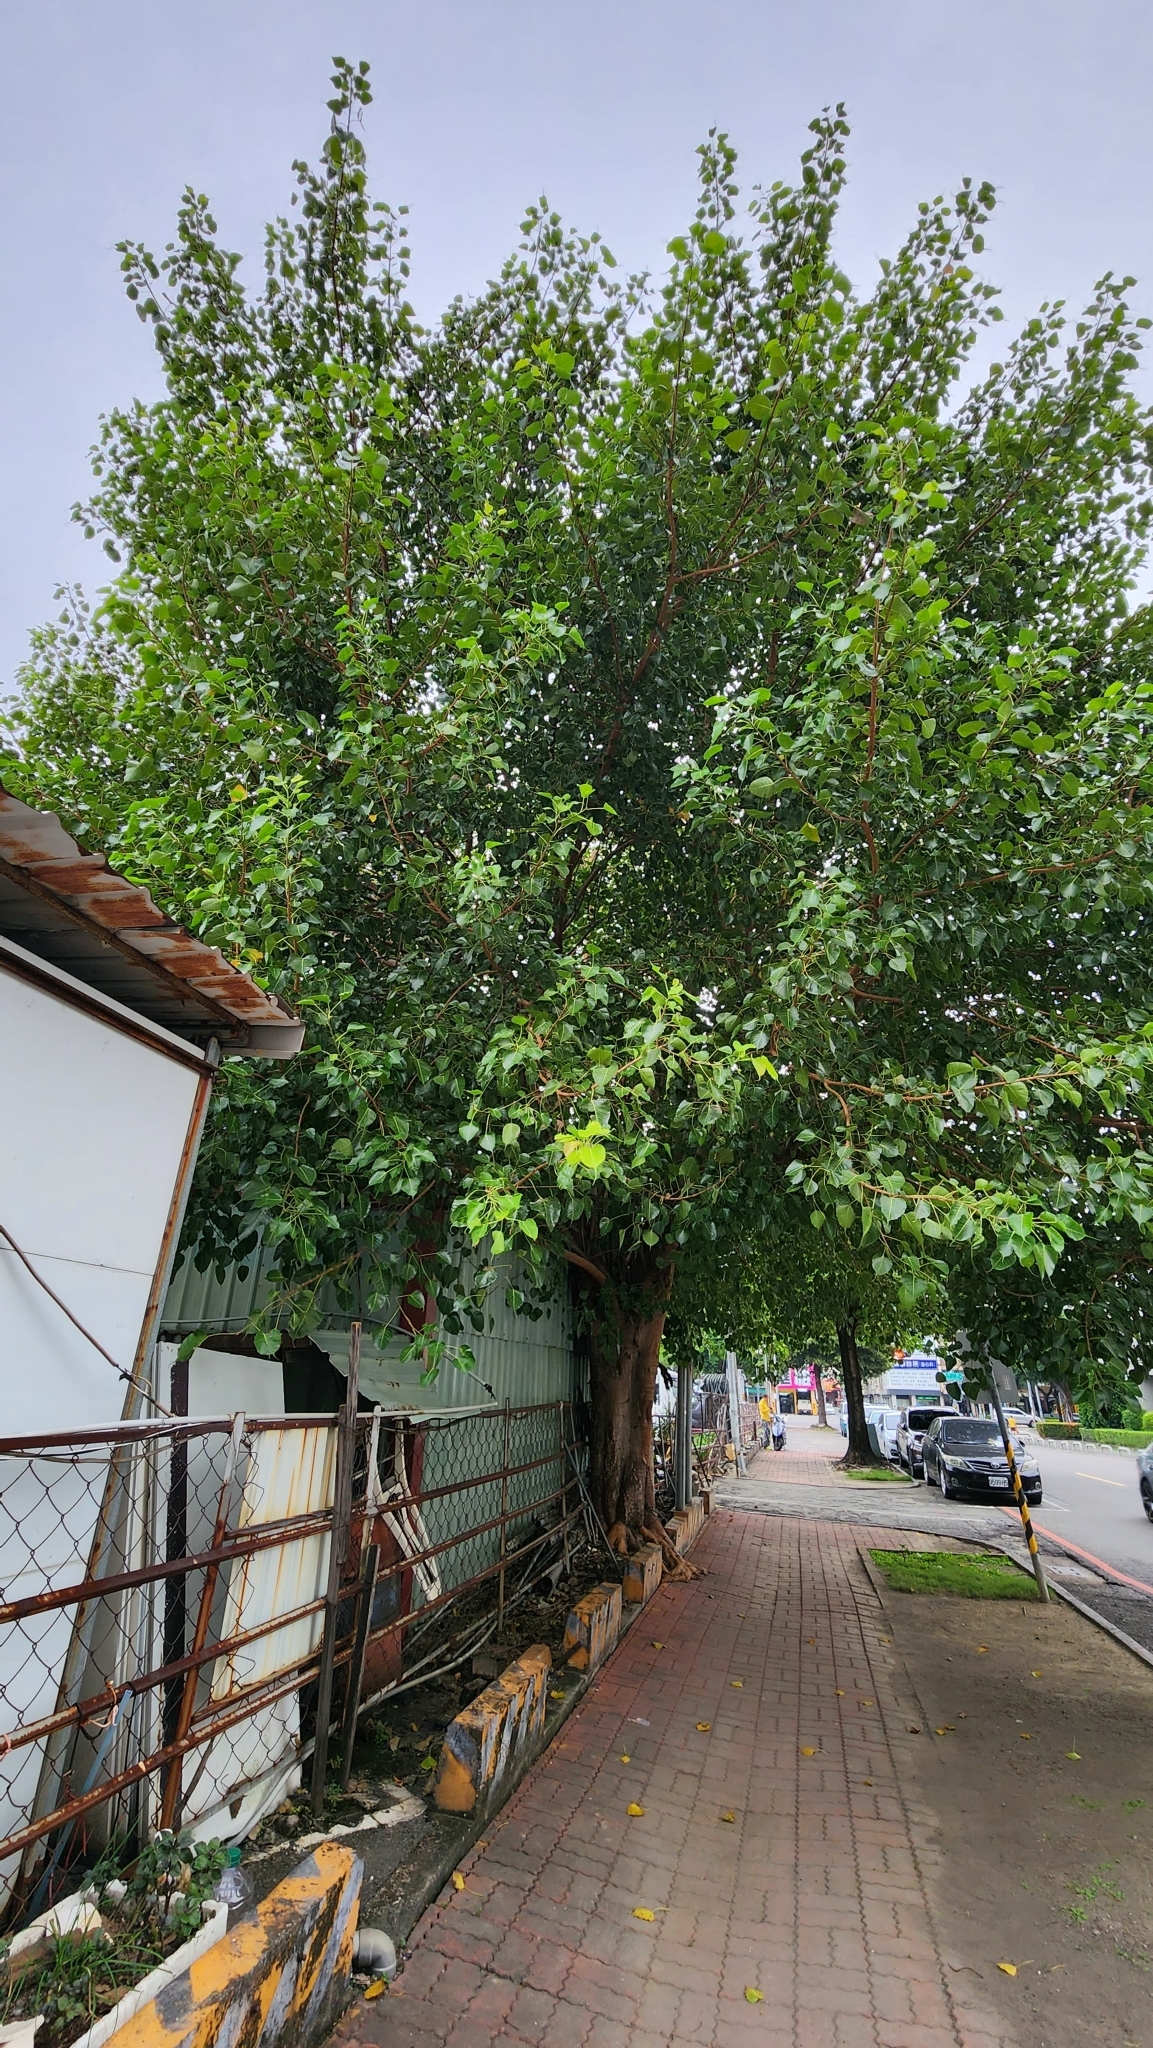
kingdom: Plantae
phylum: Tracheophyta
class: Magnoliopsida
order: Rosales
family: Moraceae
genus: Ficus
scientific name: Ficus religiosa
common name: Bodhi tree
